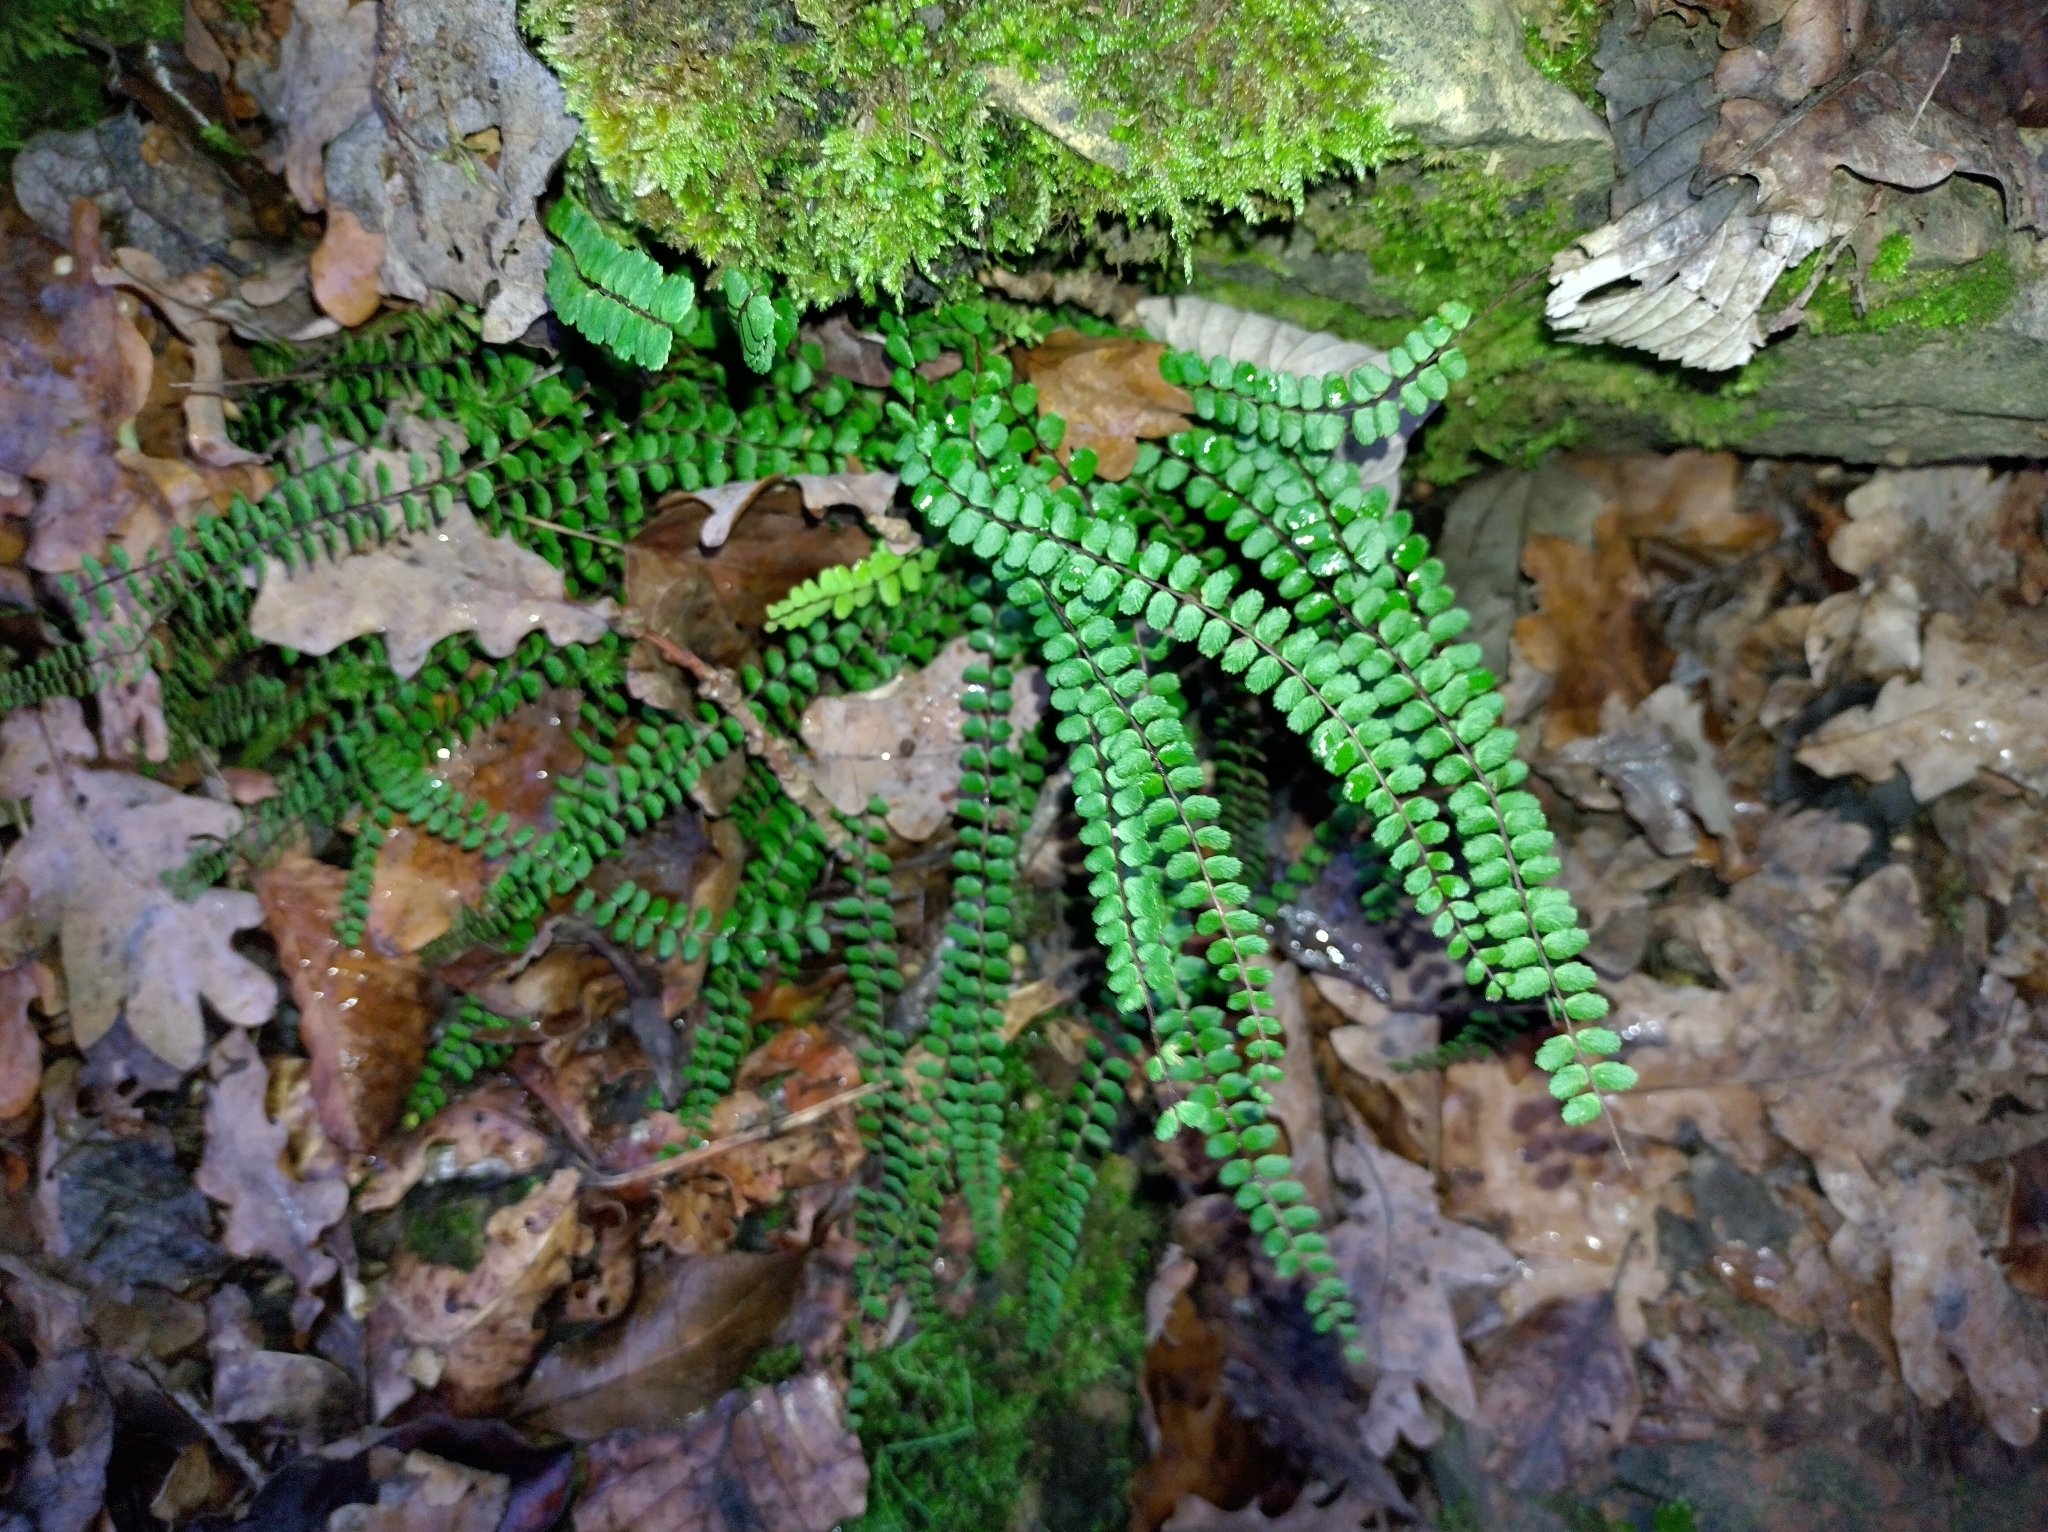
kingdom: Plantae
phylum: Tracheophyta
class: Polypodiopsida
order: Polypodiales
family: Aspleniaceae
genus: Asplenium
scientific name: Asplenium trichomanes
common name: Maidenhair spleenwort
